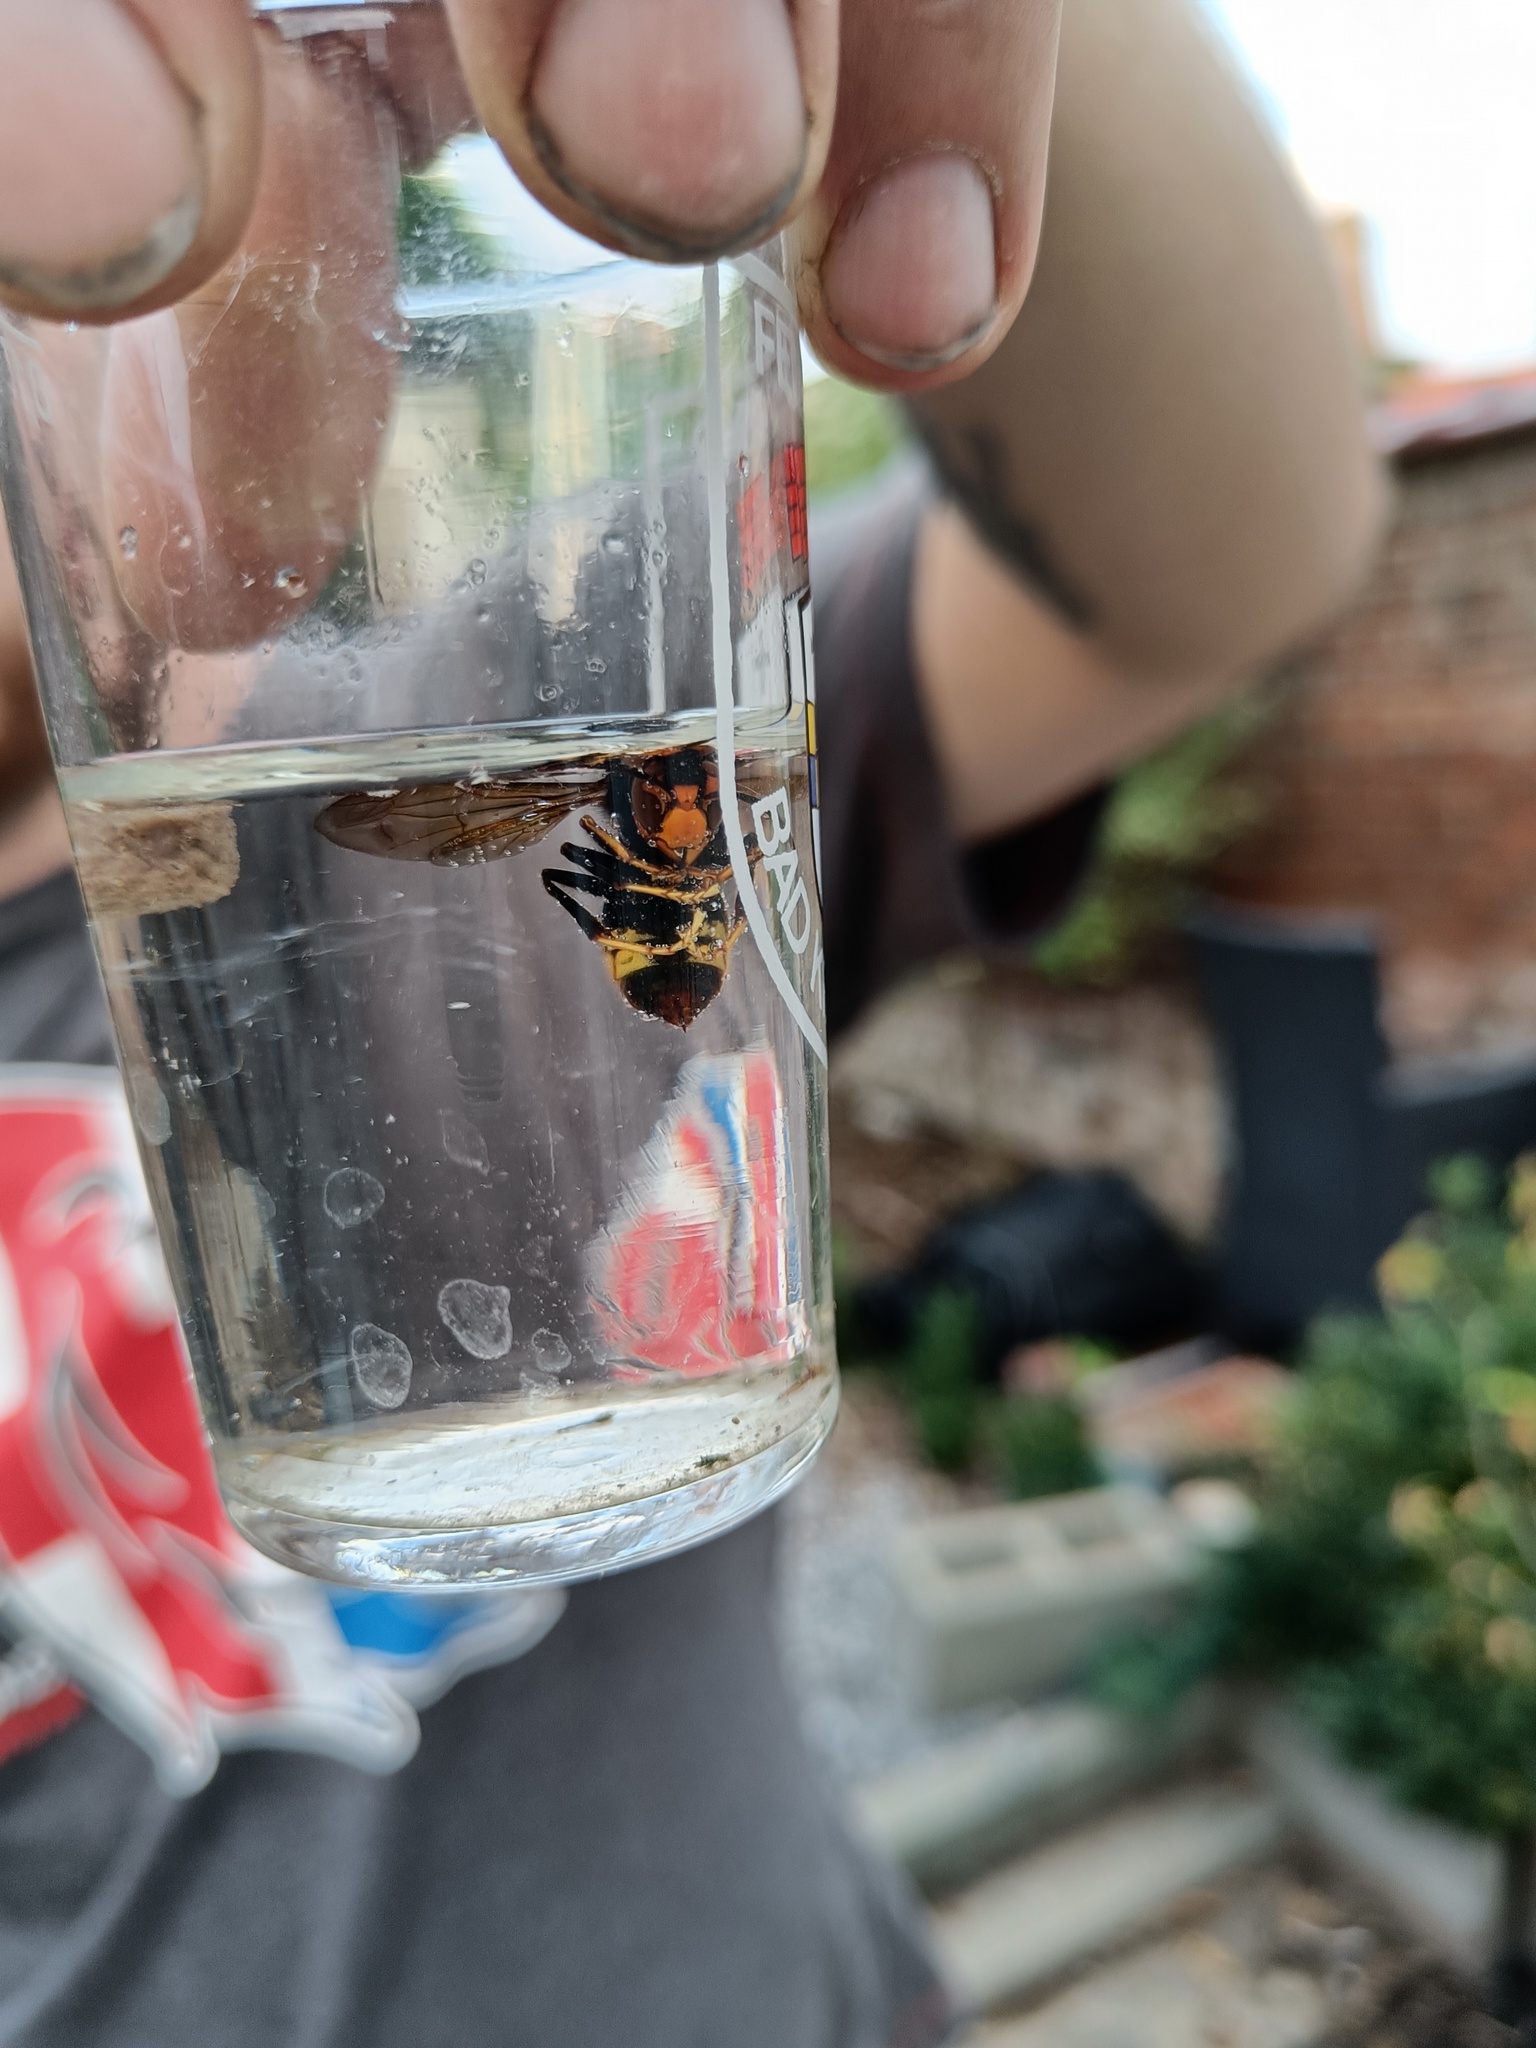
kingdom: Animalia
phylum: Arthropoda
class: Insecta
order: Hymenoptera
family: Vespidae
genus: Vespa
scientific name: Vespa velutina
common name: Asian hornet
